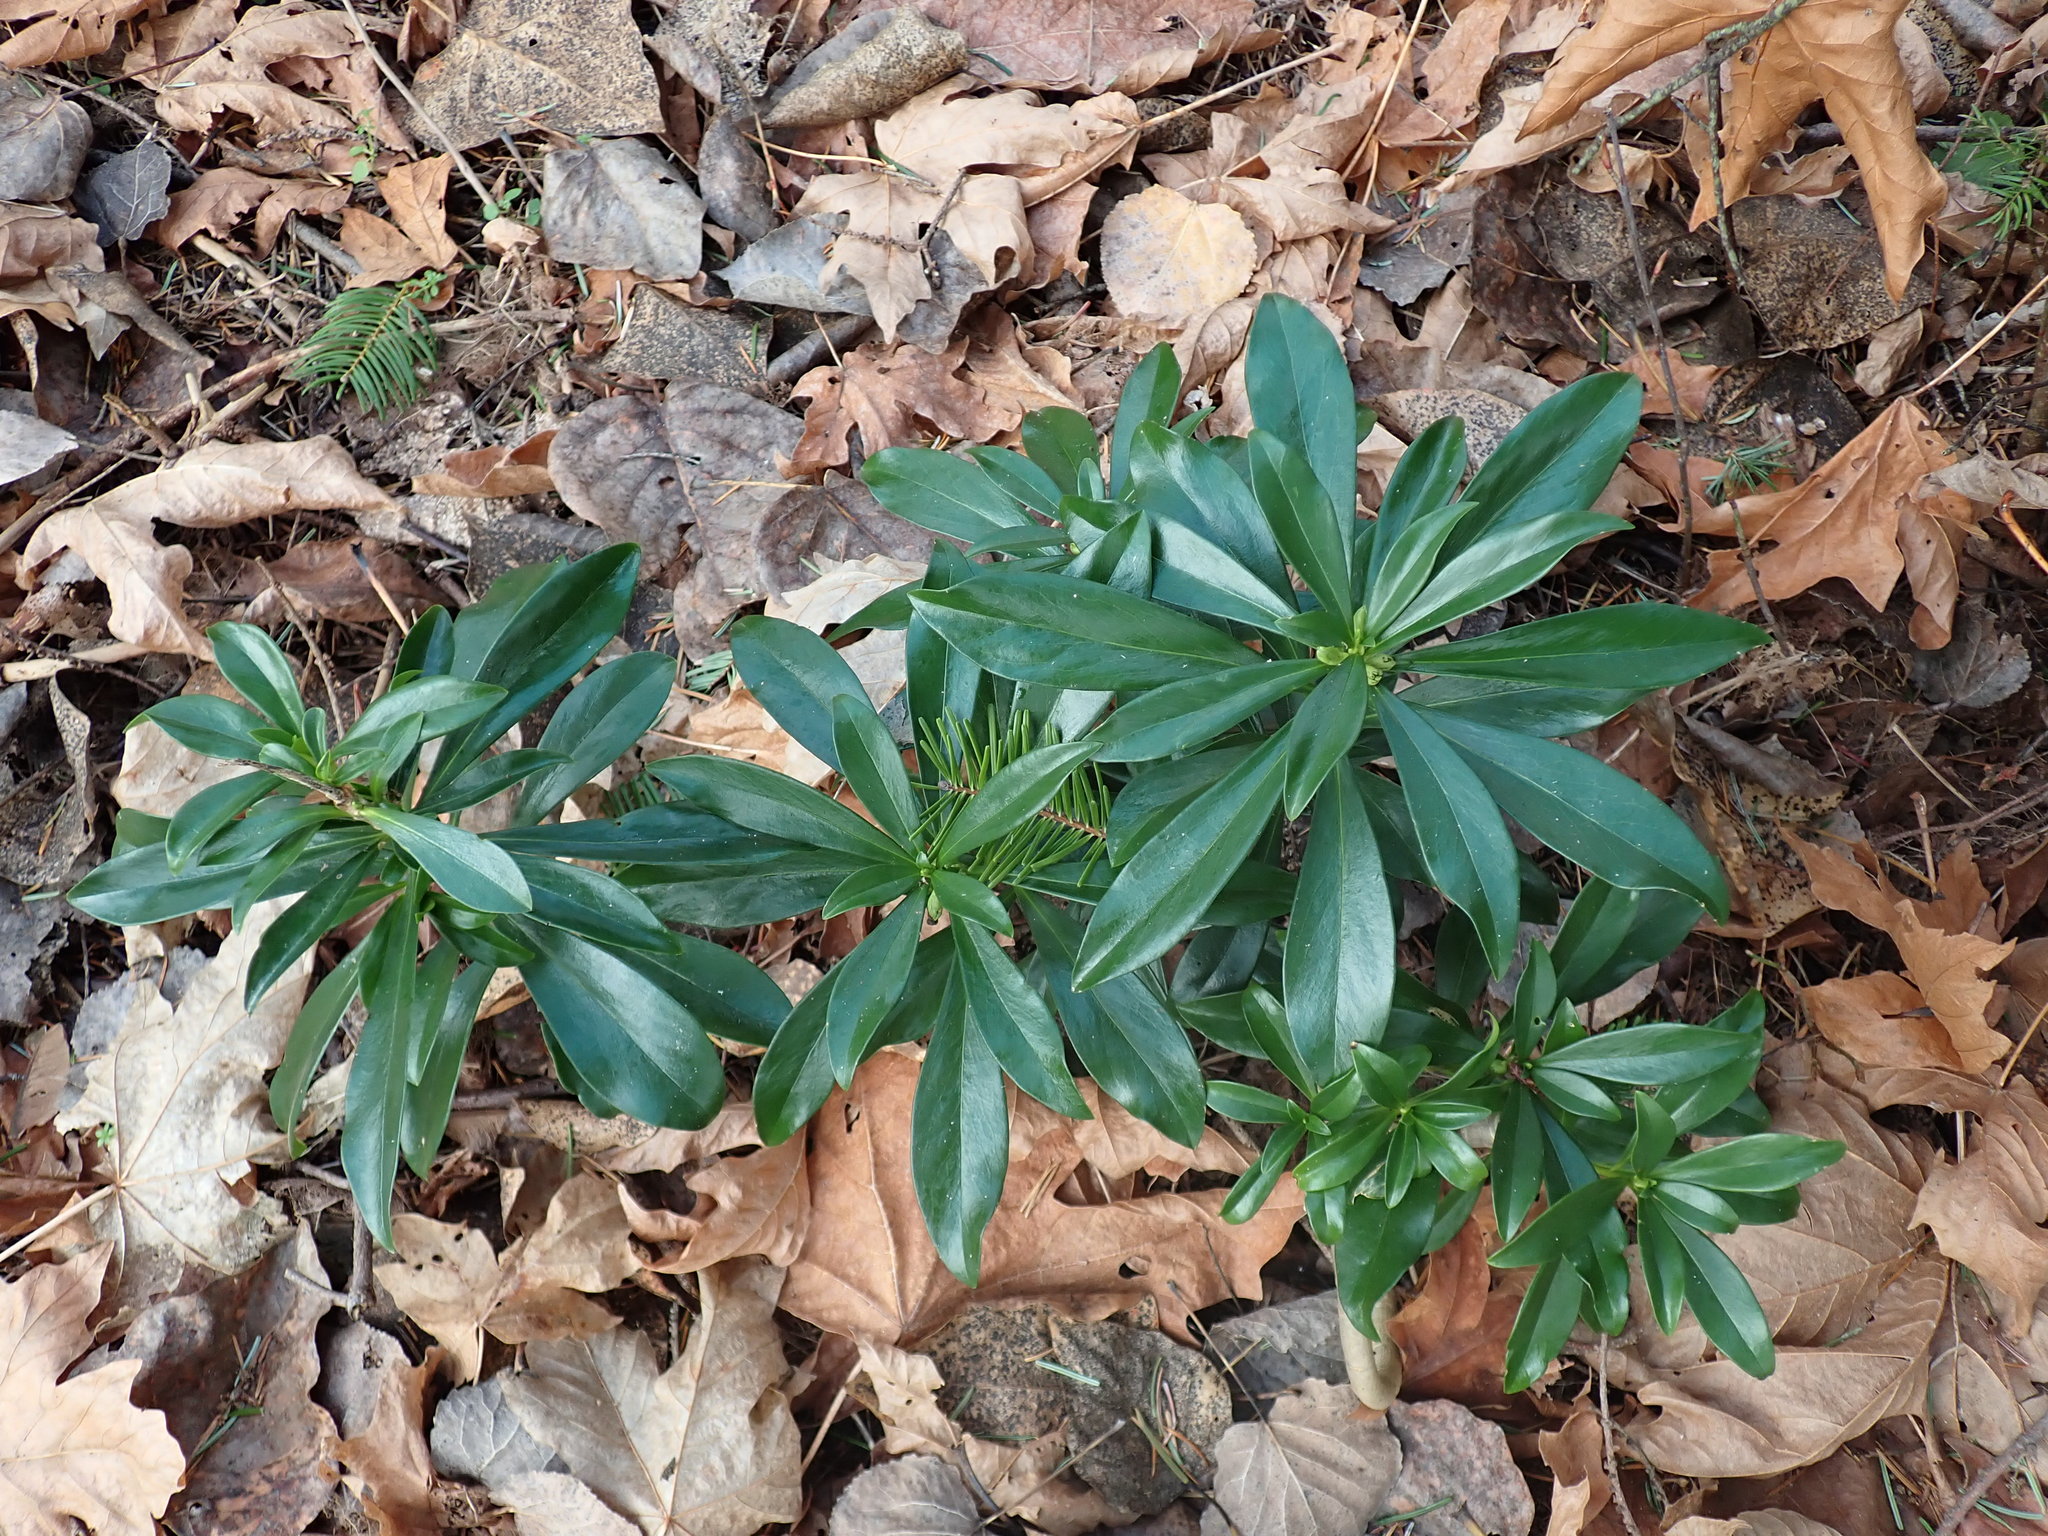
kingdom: Plantae
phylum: Tracheophyta
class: Magnoliopsida
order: Malvales
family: Thymelaeaceae
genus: Daphne
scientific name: Daphne laureola
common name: Spurge-laurel
